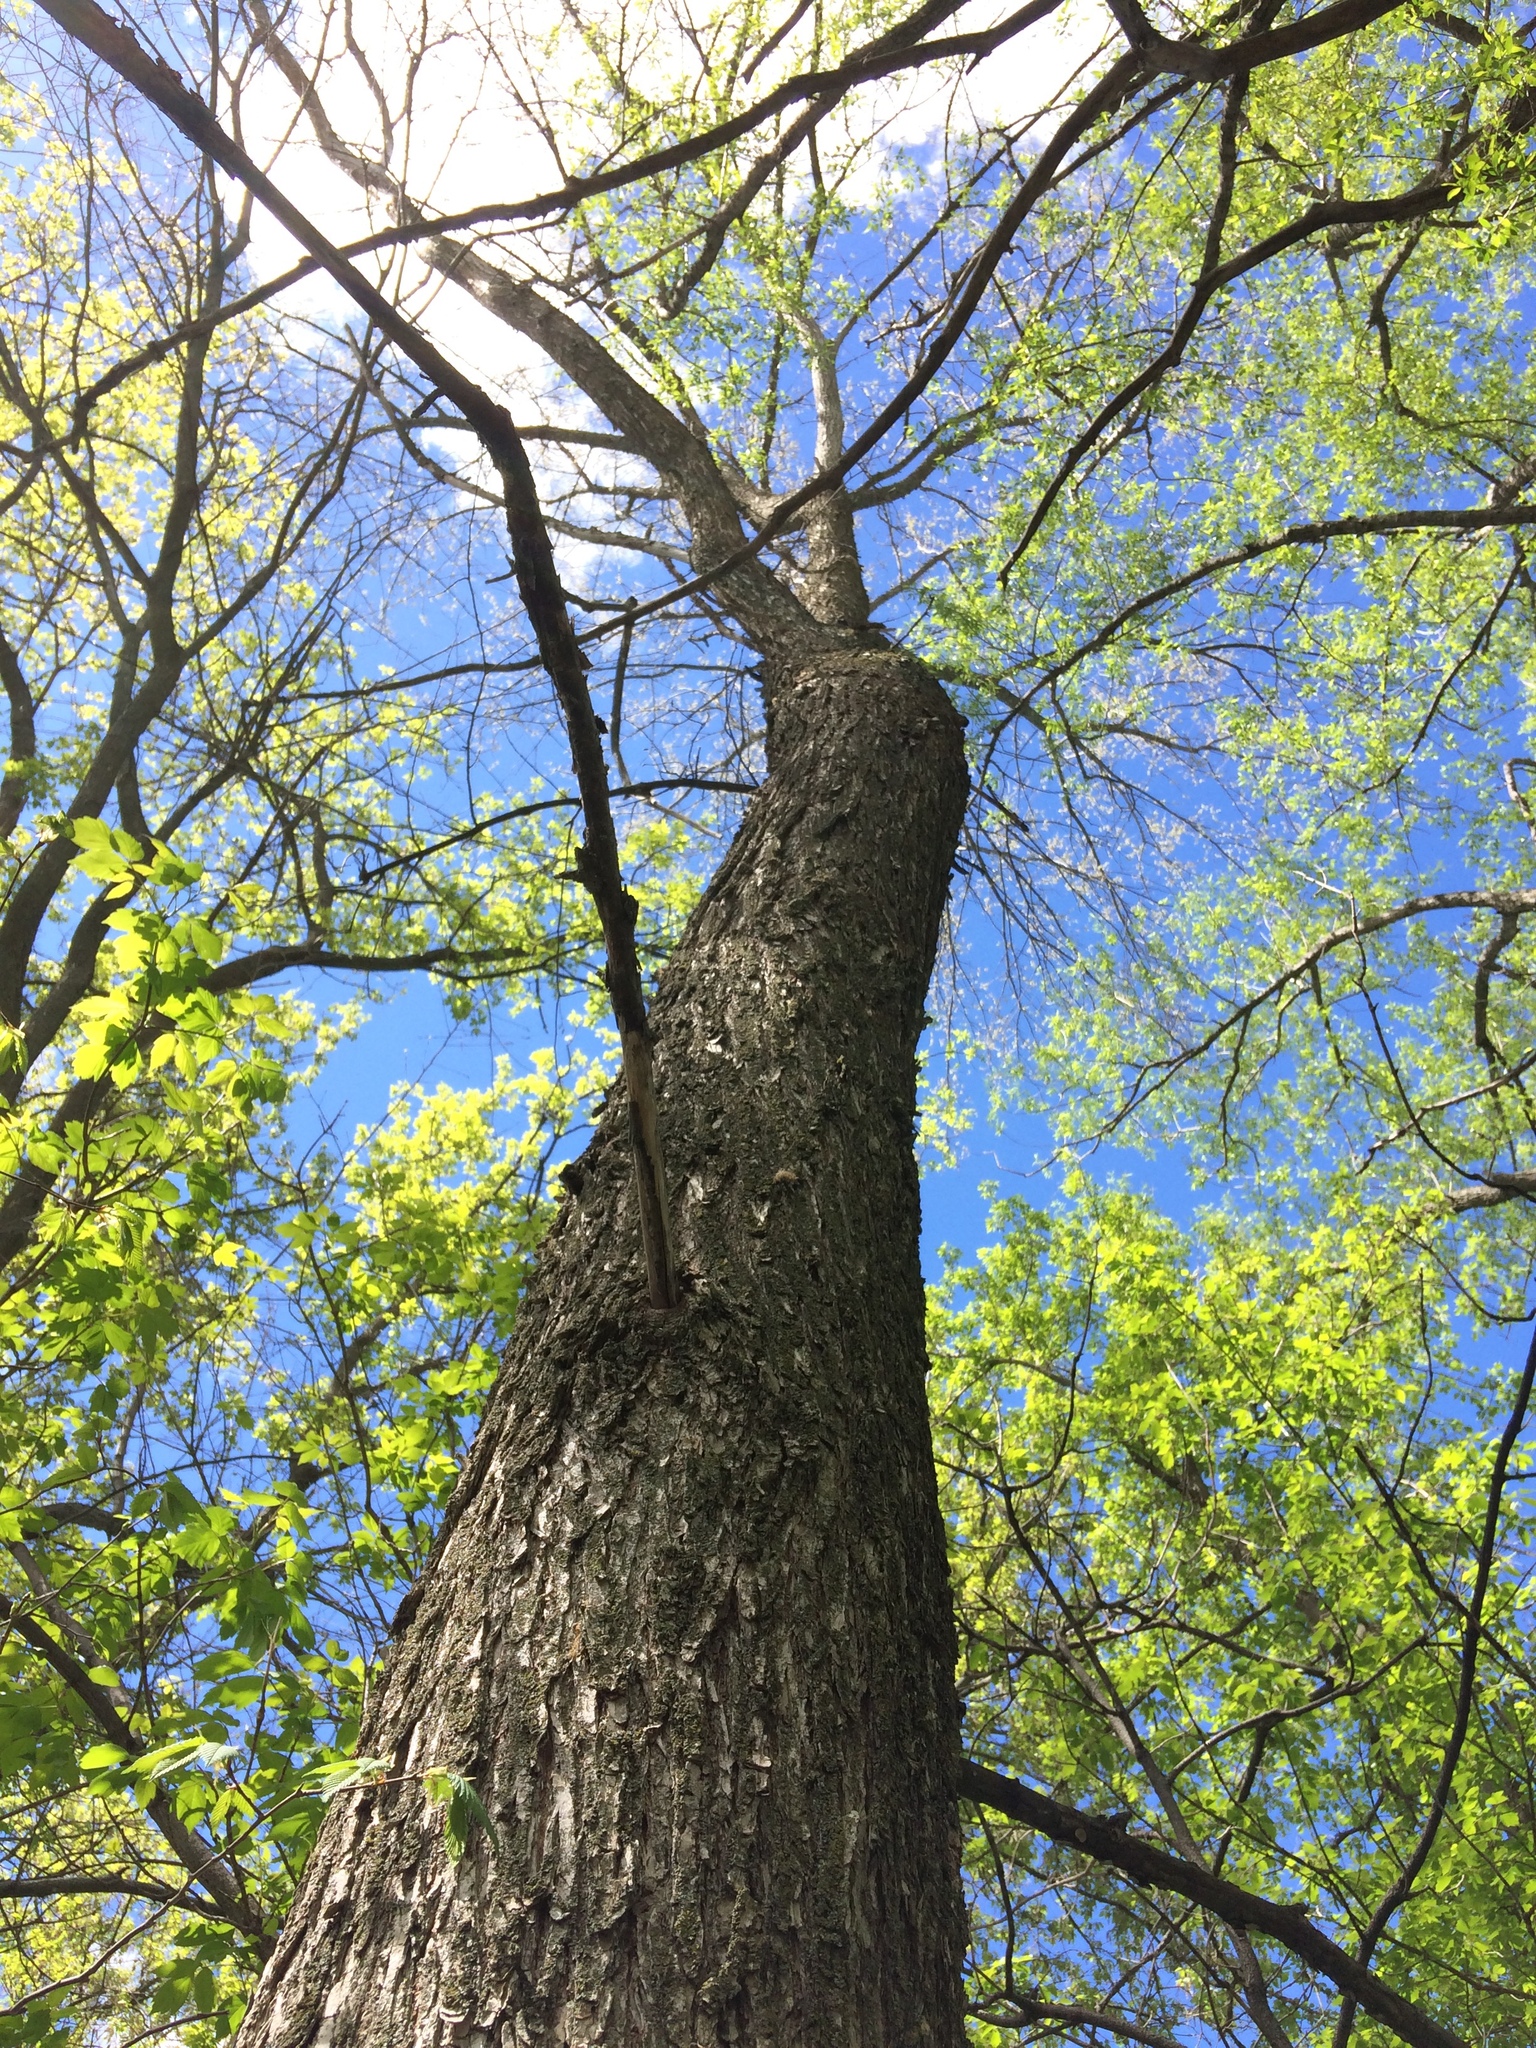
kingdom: Plantae
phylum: Tracheophyta
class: Magnoliopsida
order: Rosales
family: Ulmaceae
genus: Ulmus
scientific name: Ulmus americana
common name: American elm
